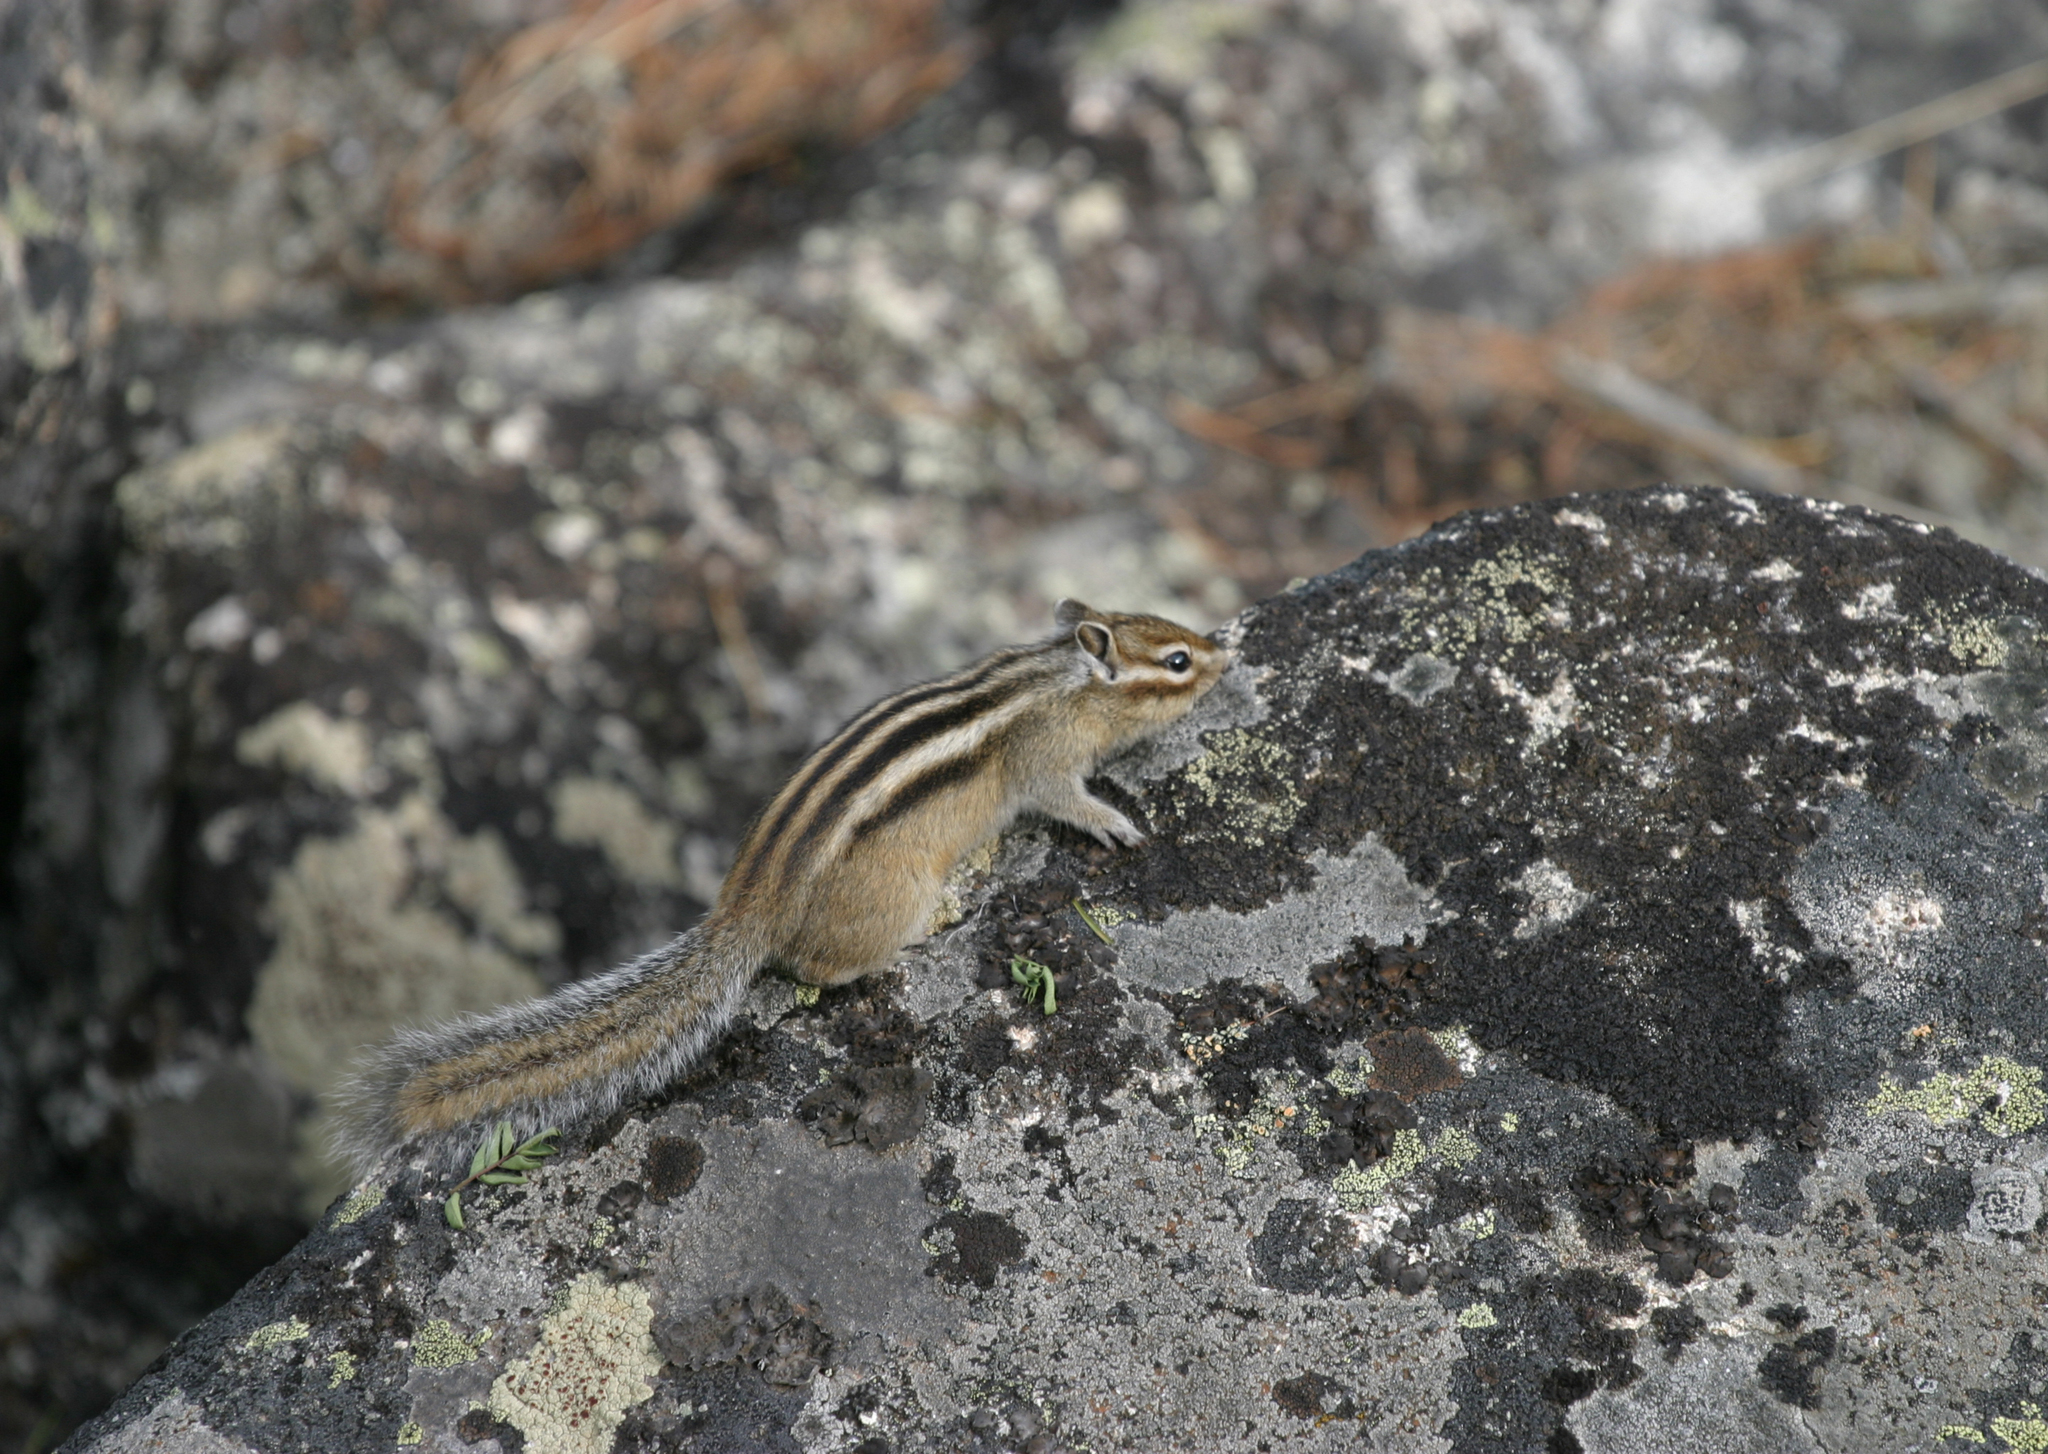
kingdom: Animalia
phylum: Chordata
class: Mammalia
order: Rodentia
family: Sciuridae
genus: Tamias
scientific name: Tamias sibiricus
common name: Siberian chipmunk
